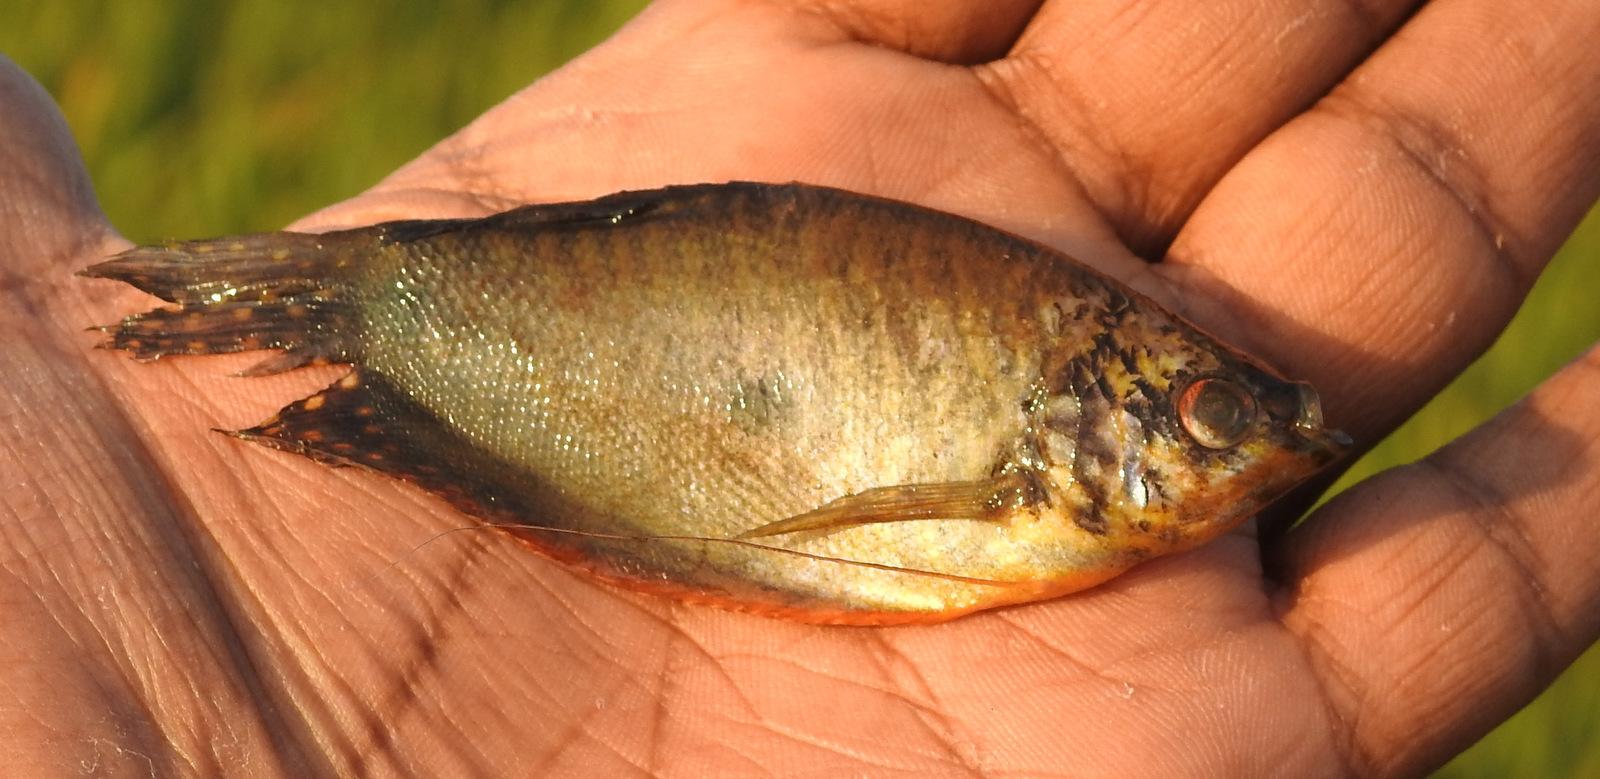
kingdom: Animalia
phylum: Chordata
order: Perciformes
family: Osphronemidae
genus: Trichopodus
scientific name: Trichopodus trichopterus
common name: Blue gourami
